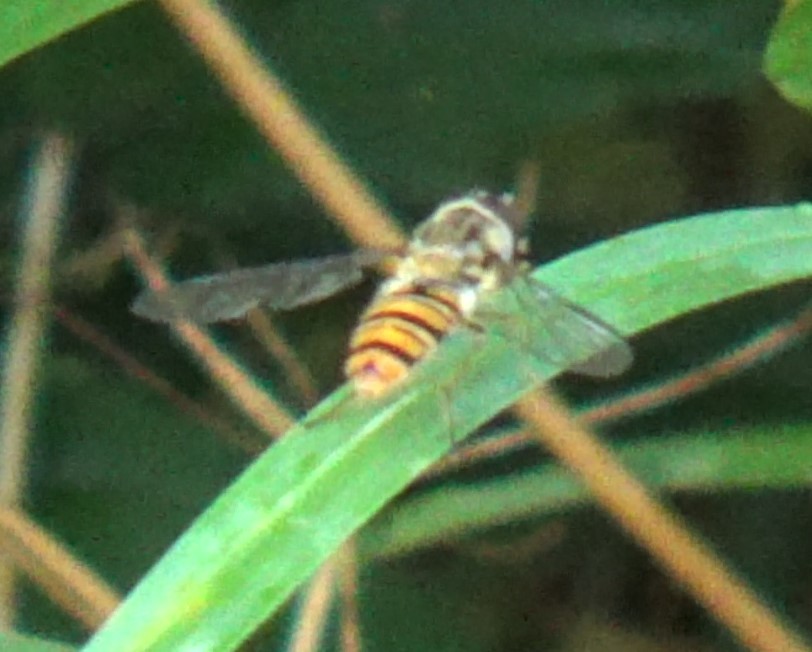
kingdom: Animalia
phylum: Arthropoda
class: Insecta
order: Diptera
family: Syrphidae
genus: Episyrphus
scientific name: Episyrphus balteatus
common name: Marmalade hoverfly
